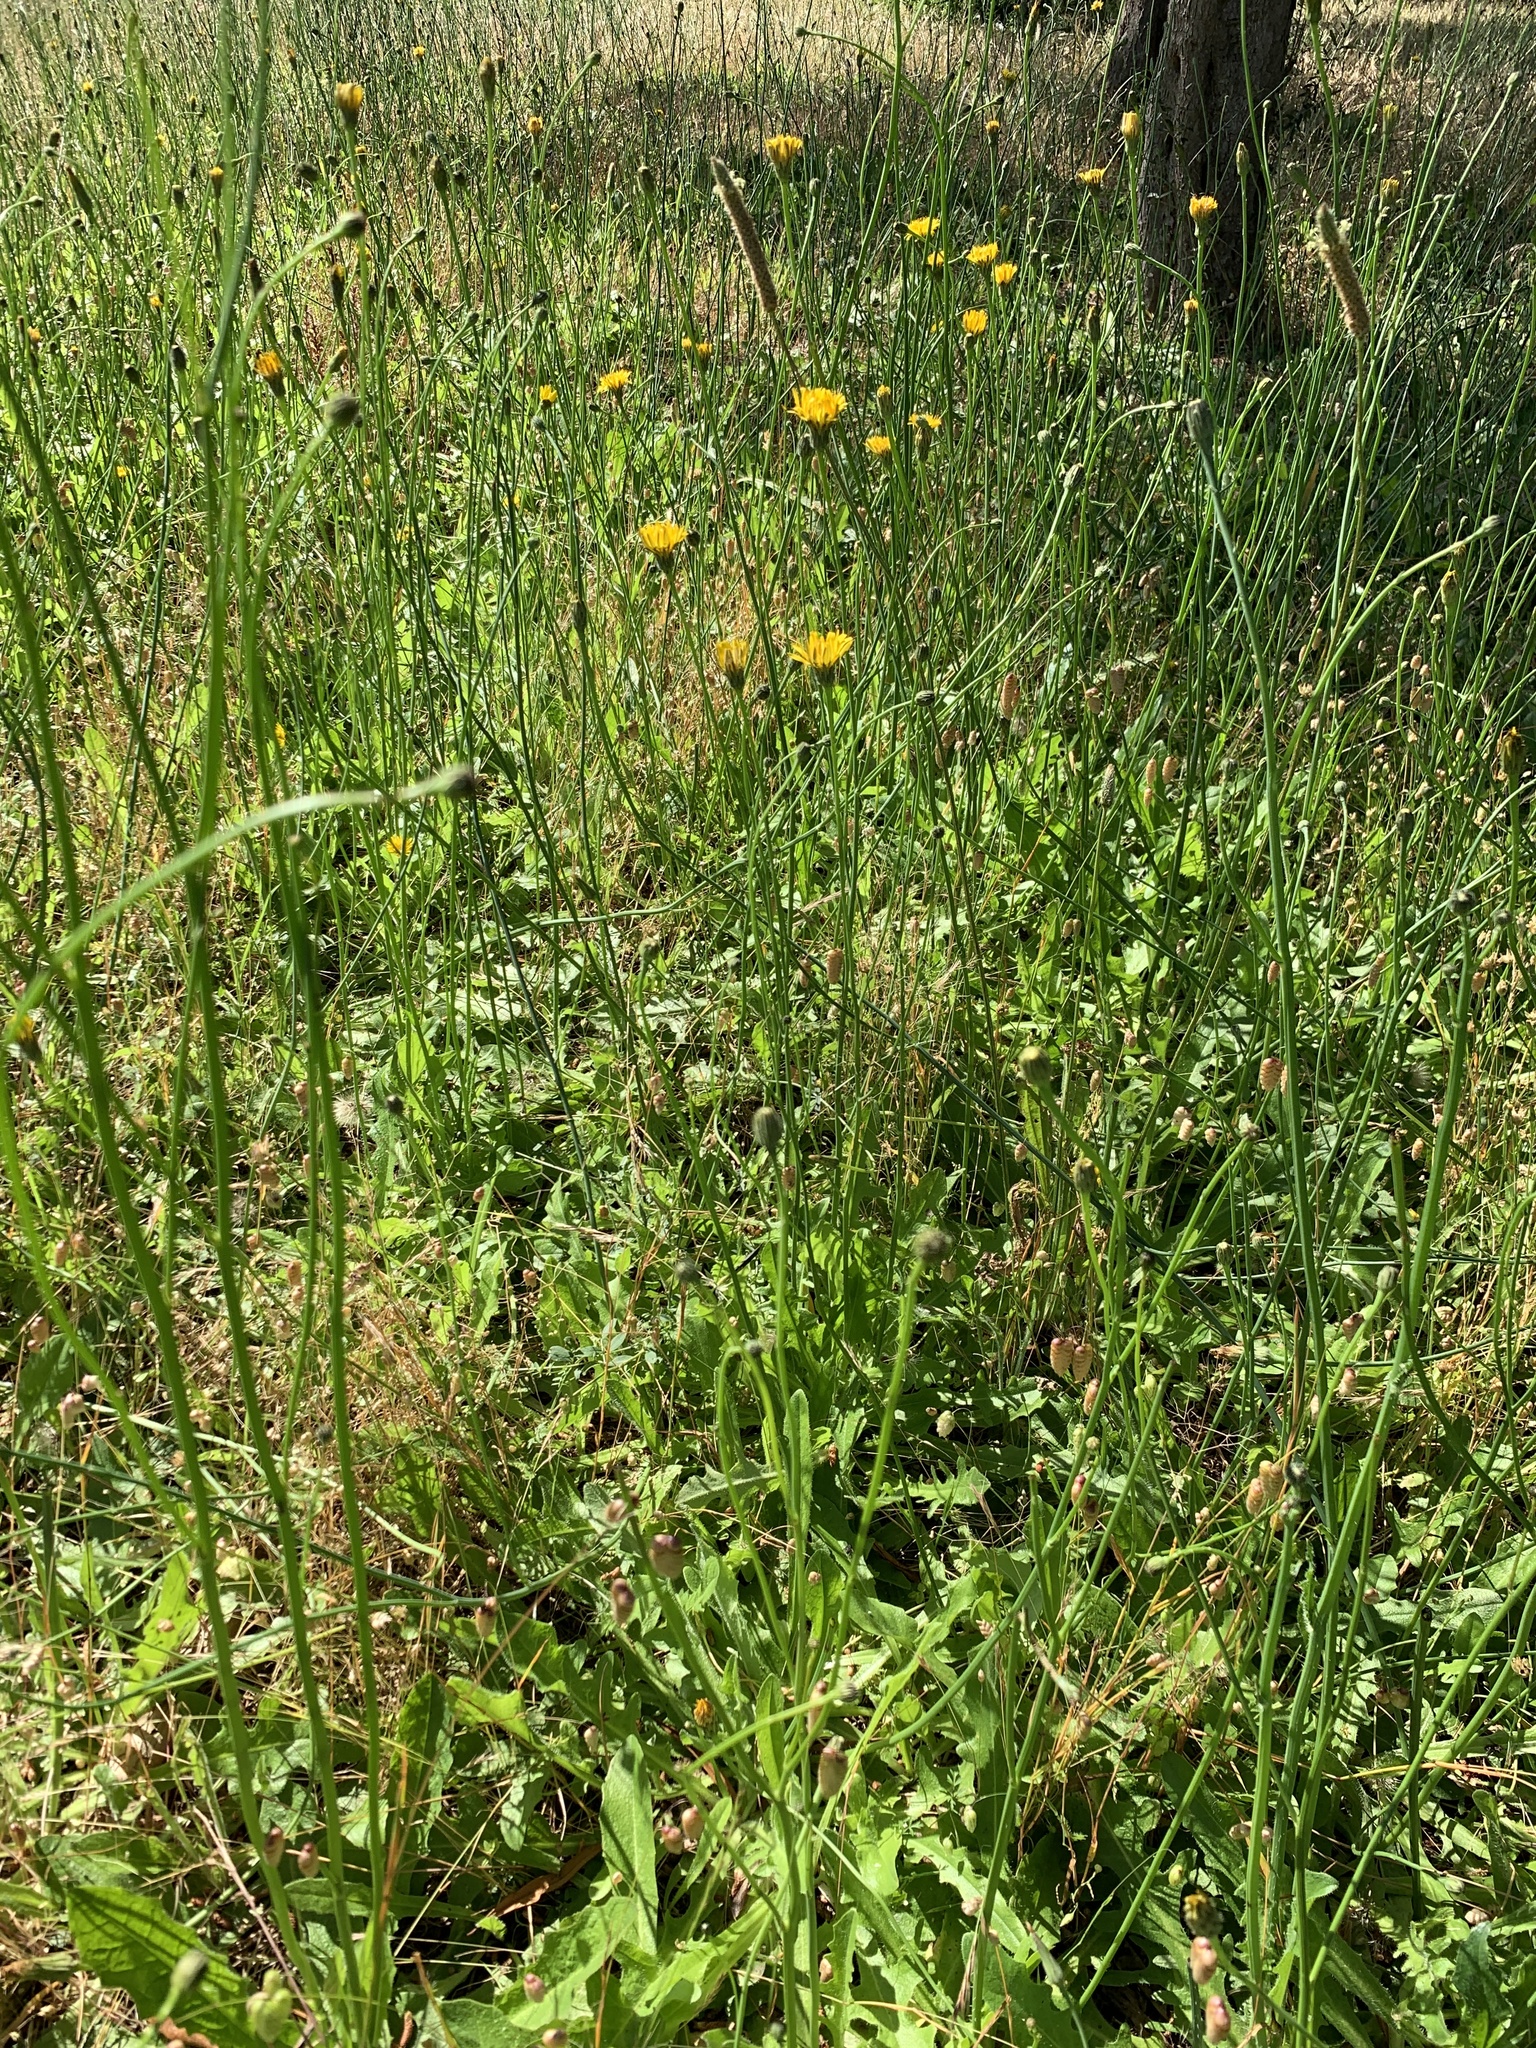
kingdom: Plantae
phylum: Tracheophyta
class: Magnoliopsida
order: Asterales
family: Asteraceae
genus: Hypochaeris
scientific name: Hypochaeris radicata
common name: Flatweed
